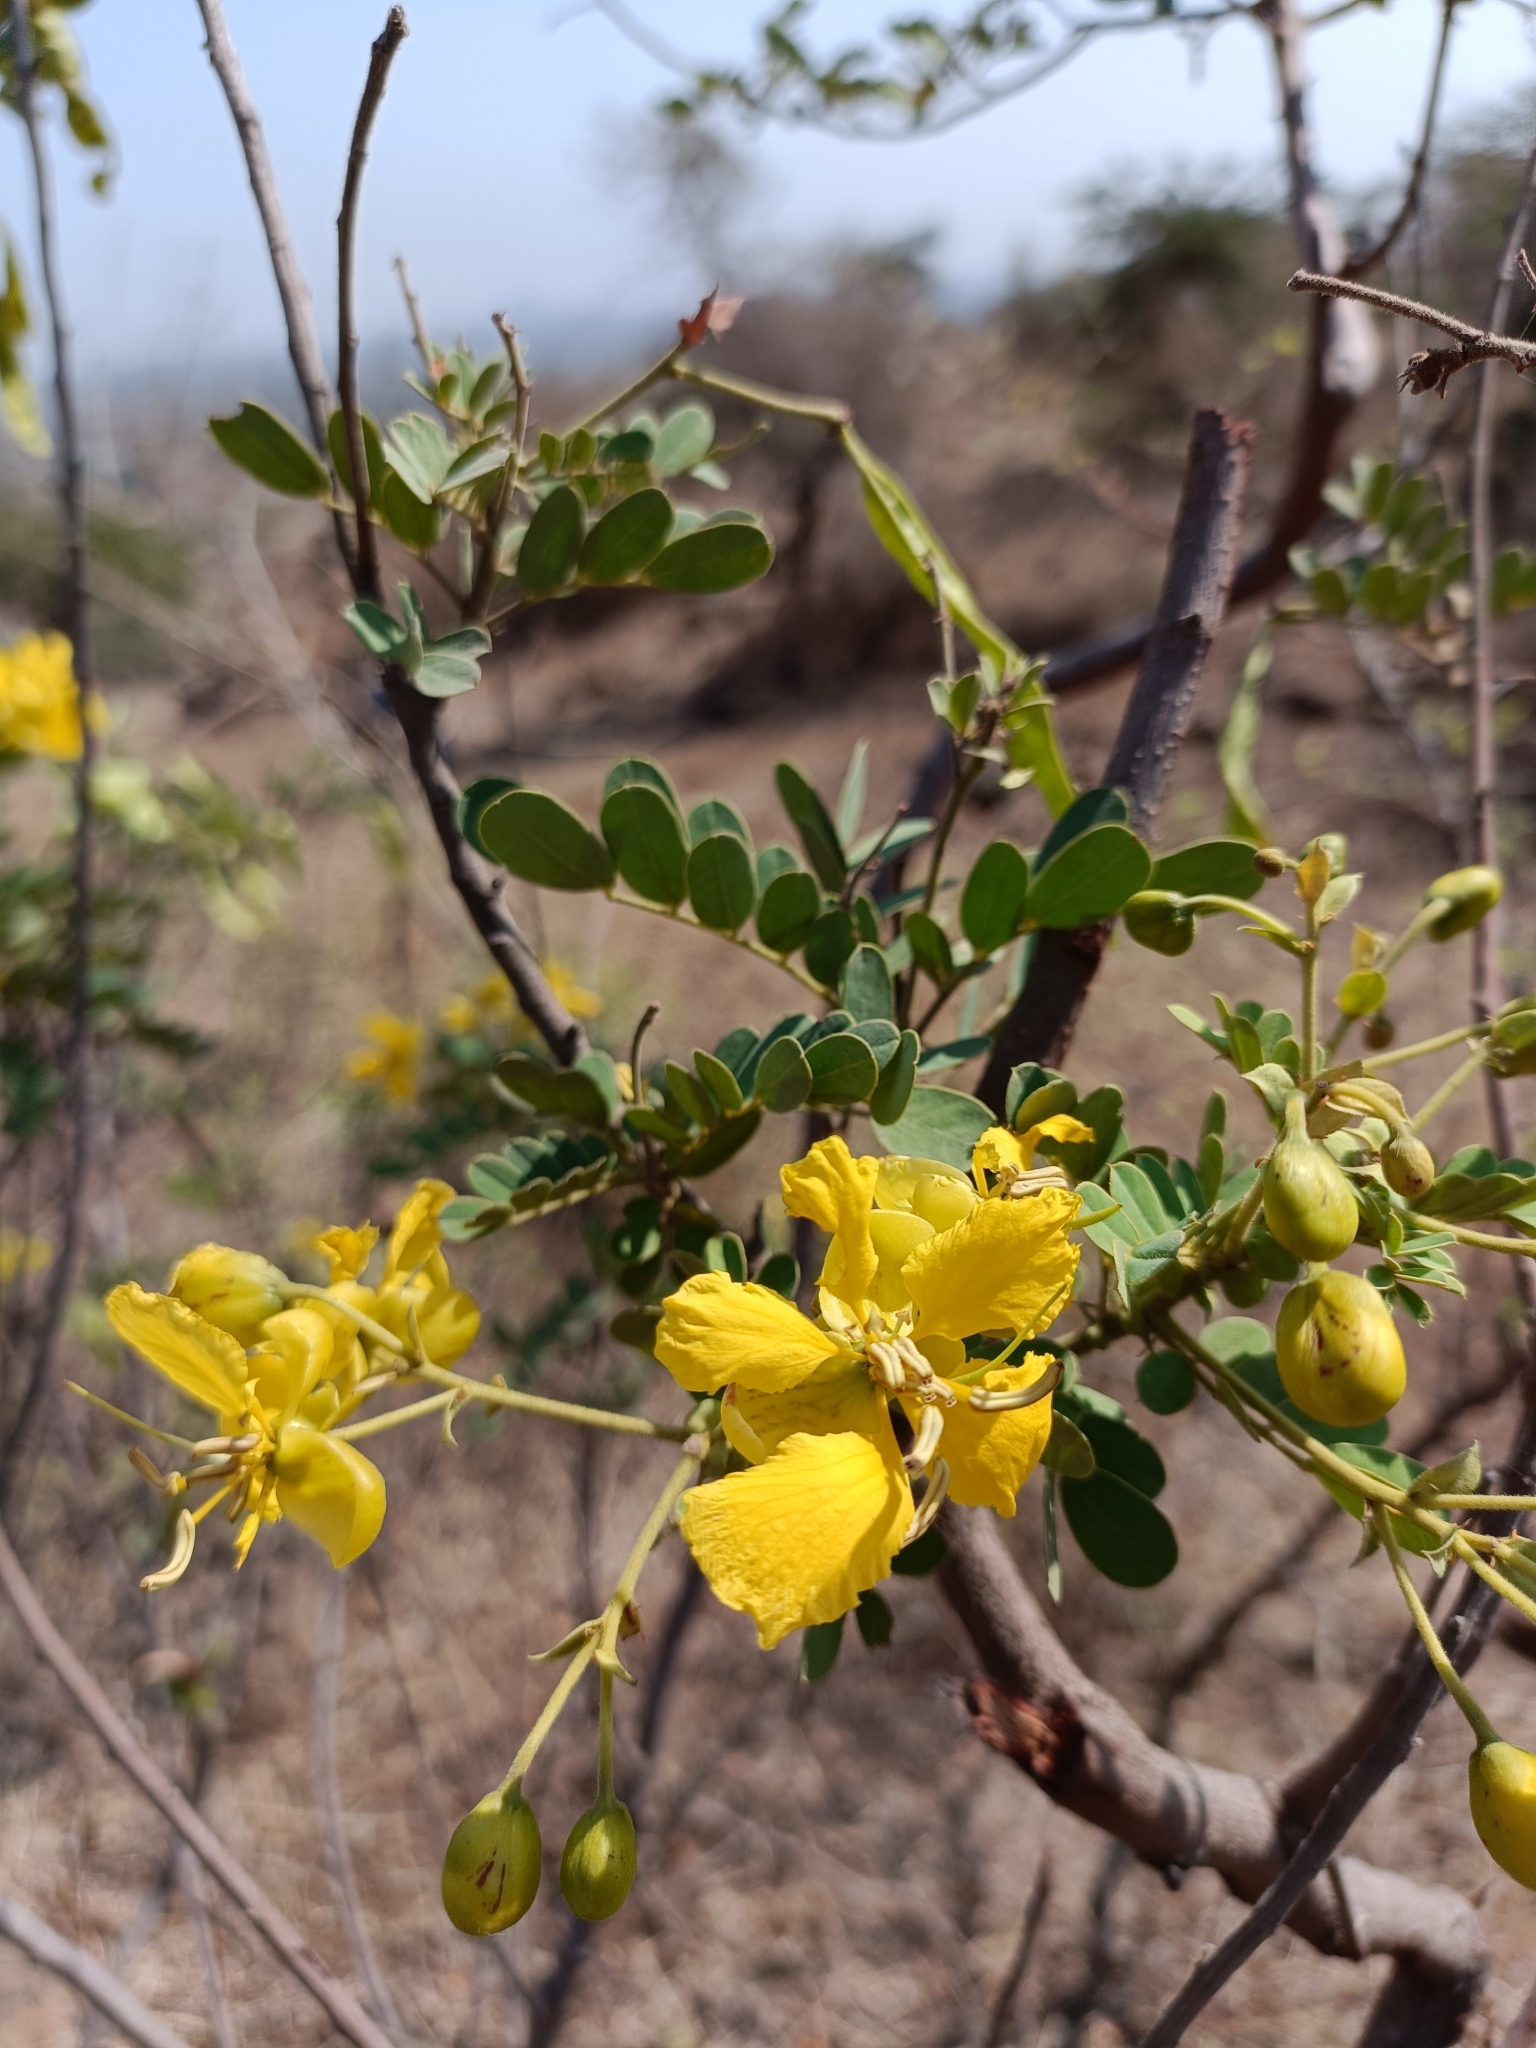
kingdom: Plantae
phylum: Tracheophyta
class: Magnoliopsida
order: Fabales
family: Fabaceae
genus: Senna
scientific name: Senna auriculata
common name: Tanner's cassia
